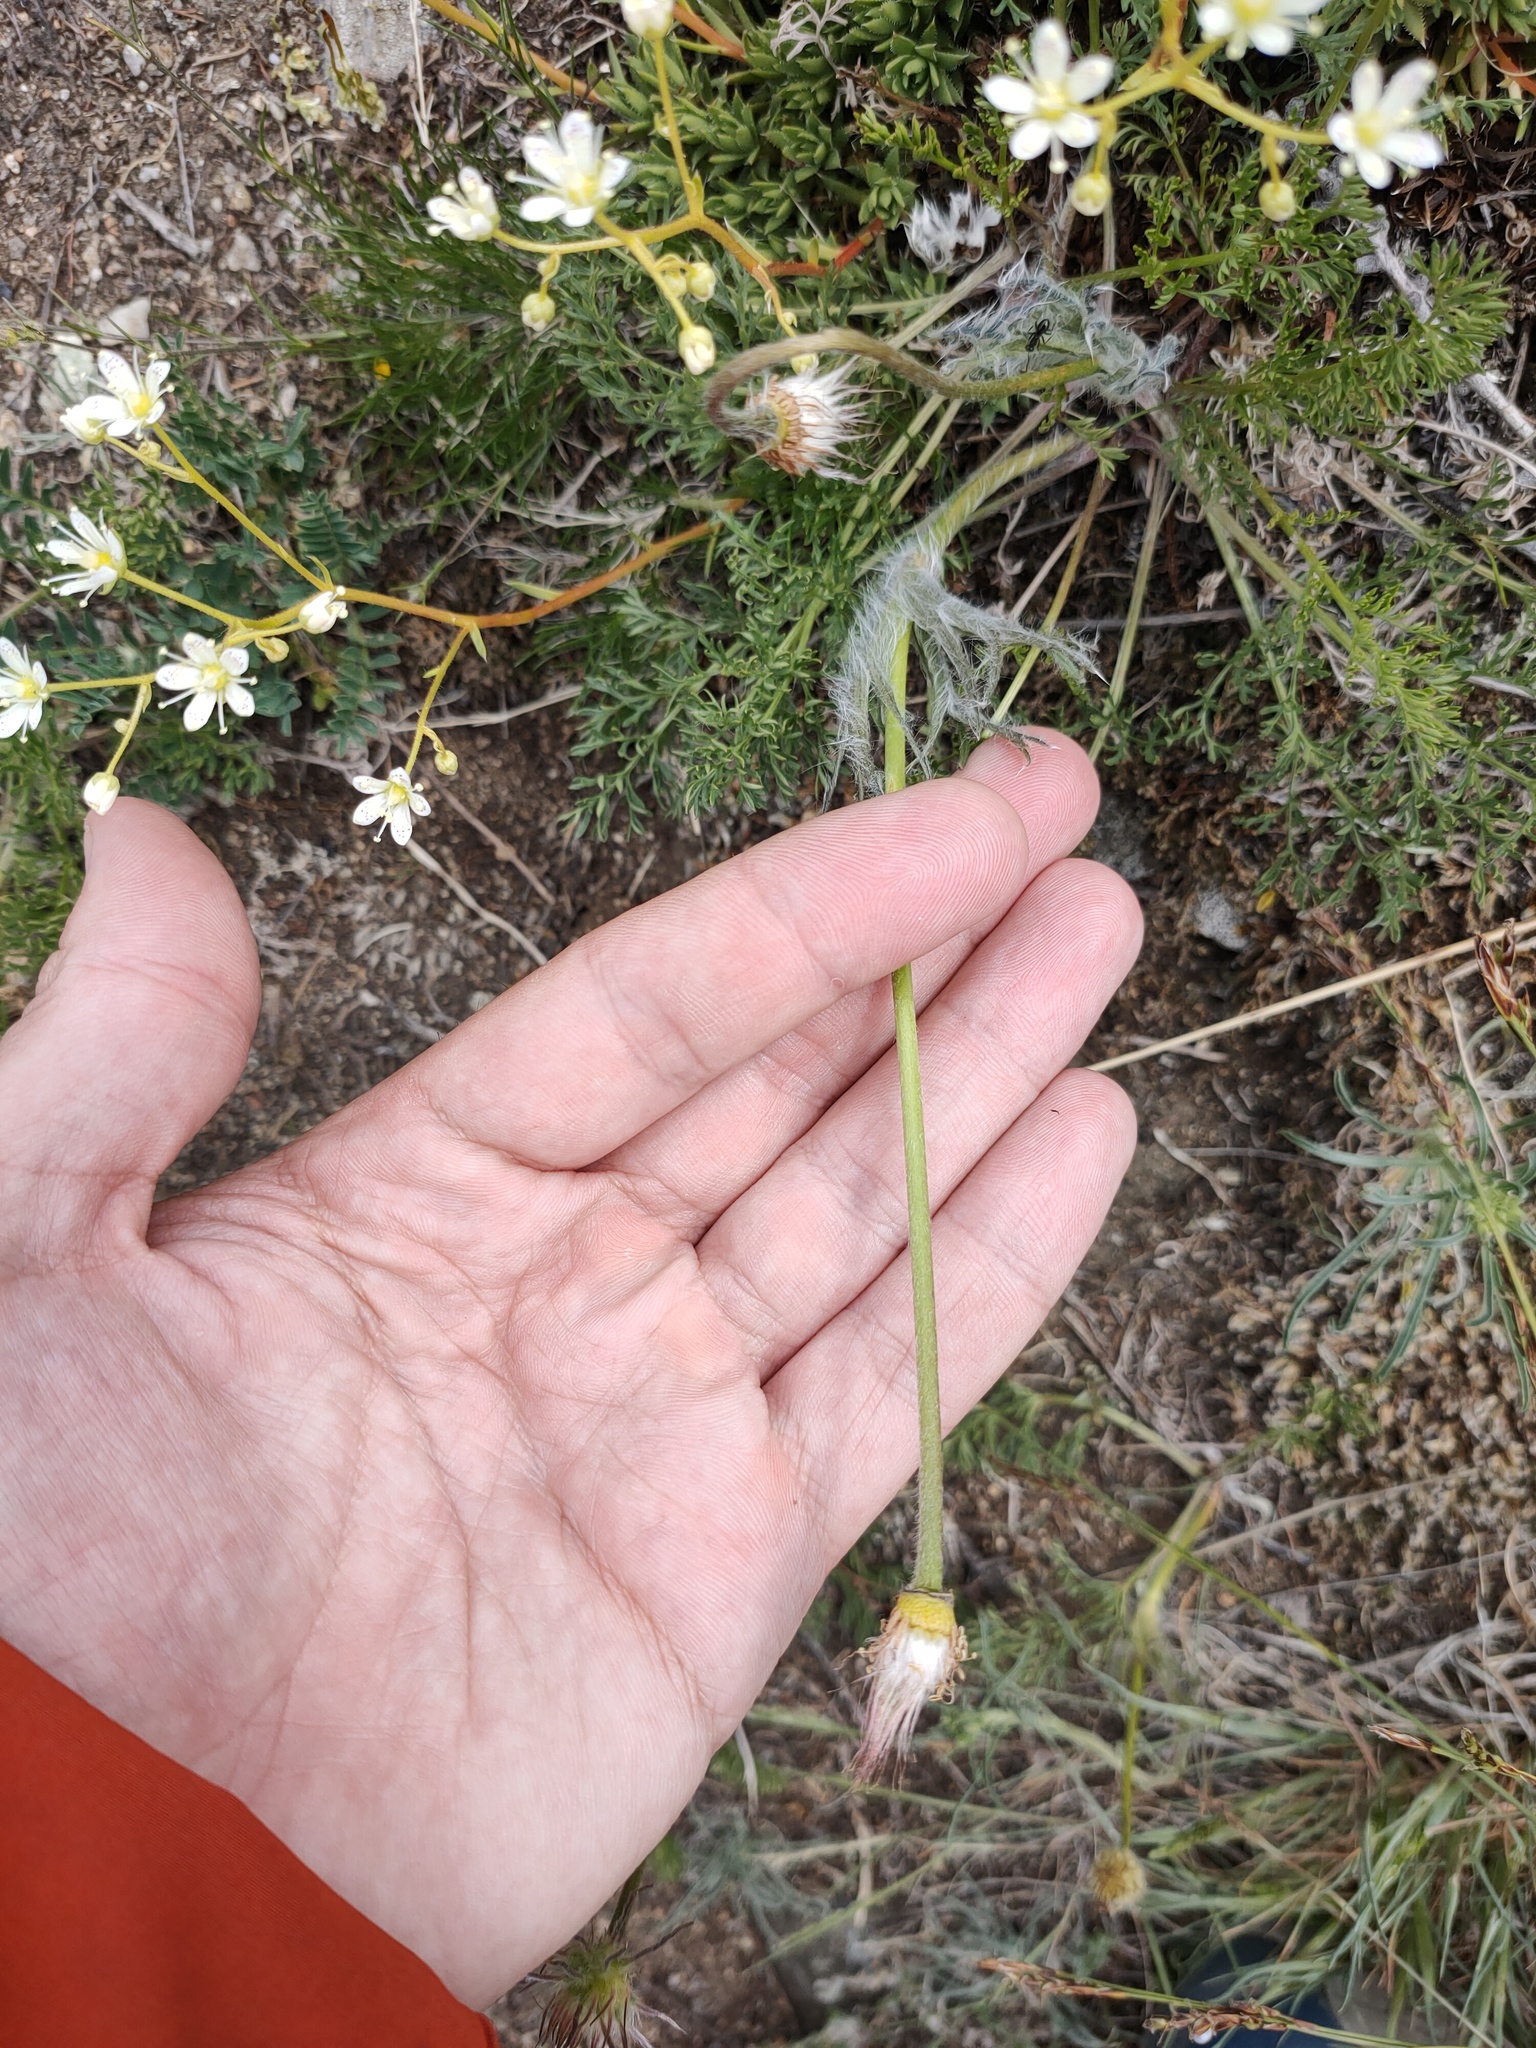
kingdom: Plantae
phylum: Tracheophyta
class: Magnoliopsida
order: Ranunculales
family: Ranunculaceae
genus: Pulsatilla
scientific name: Pulsatilla tenuiloba
